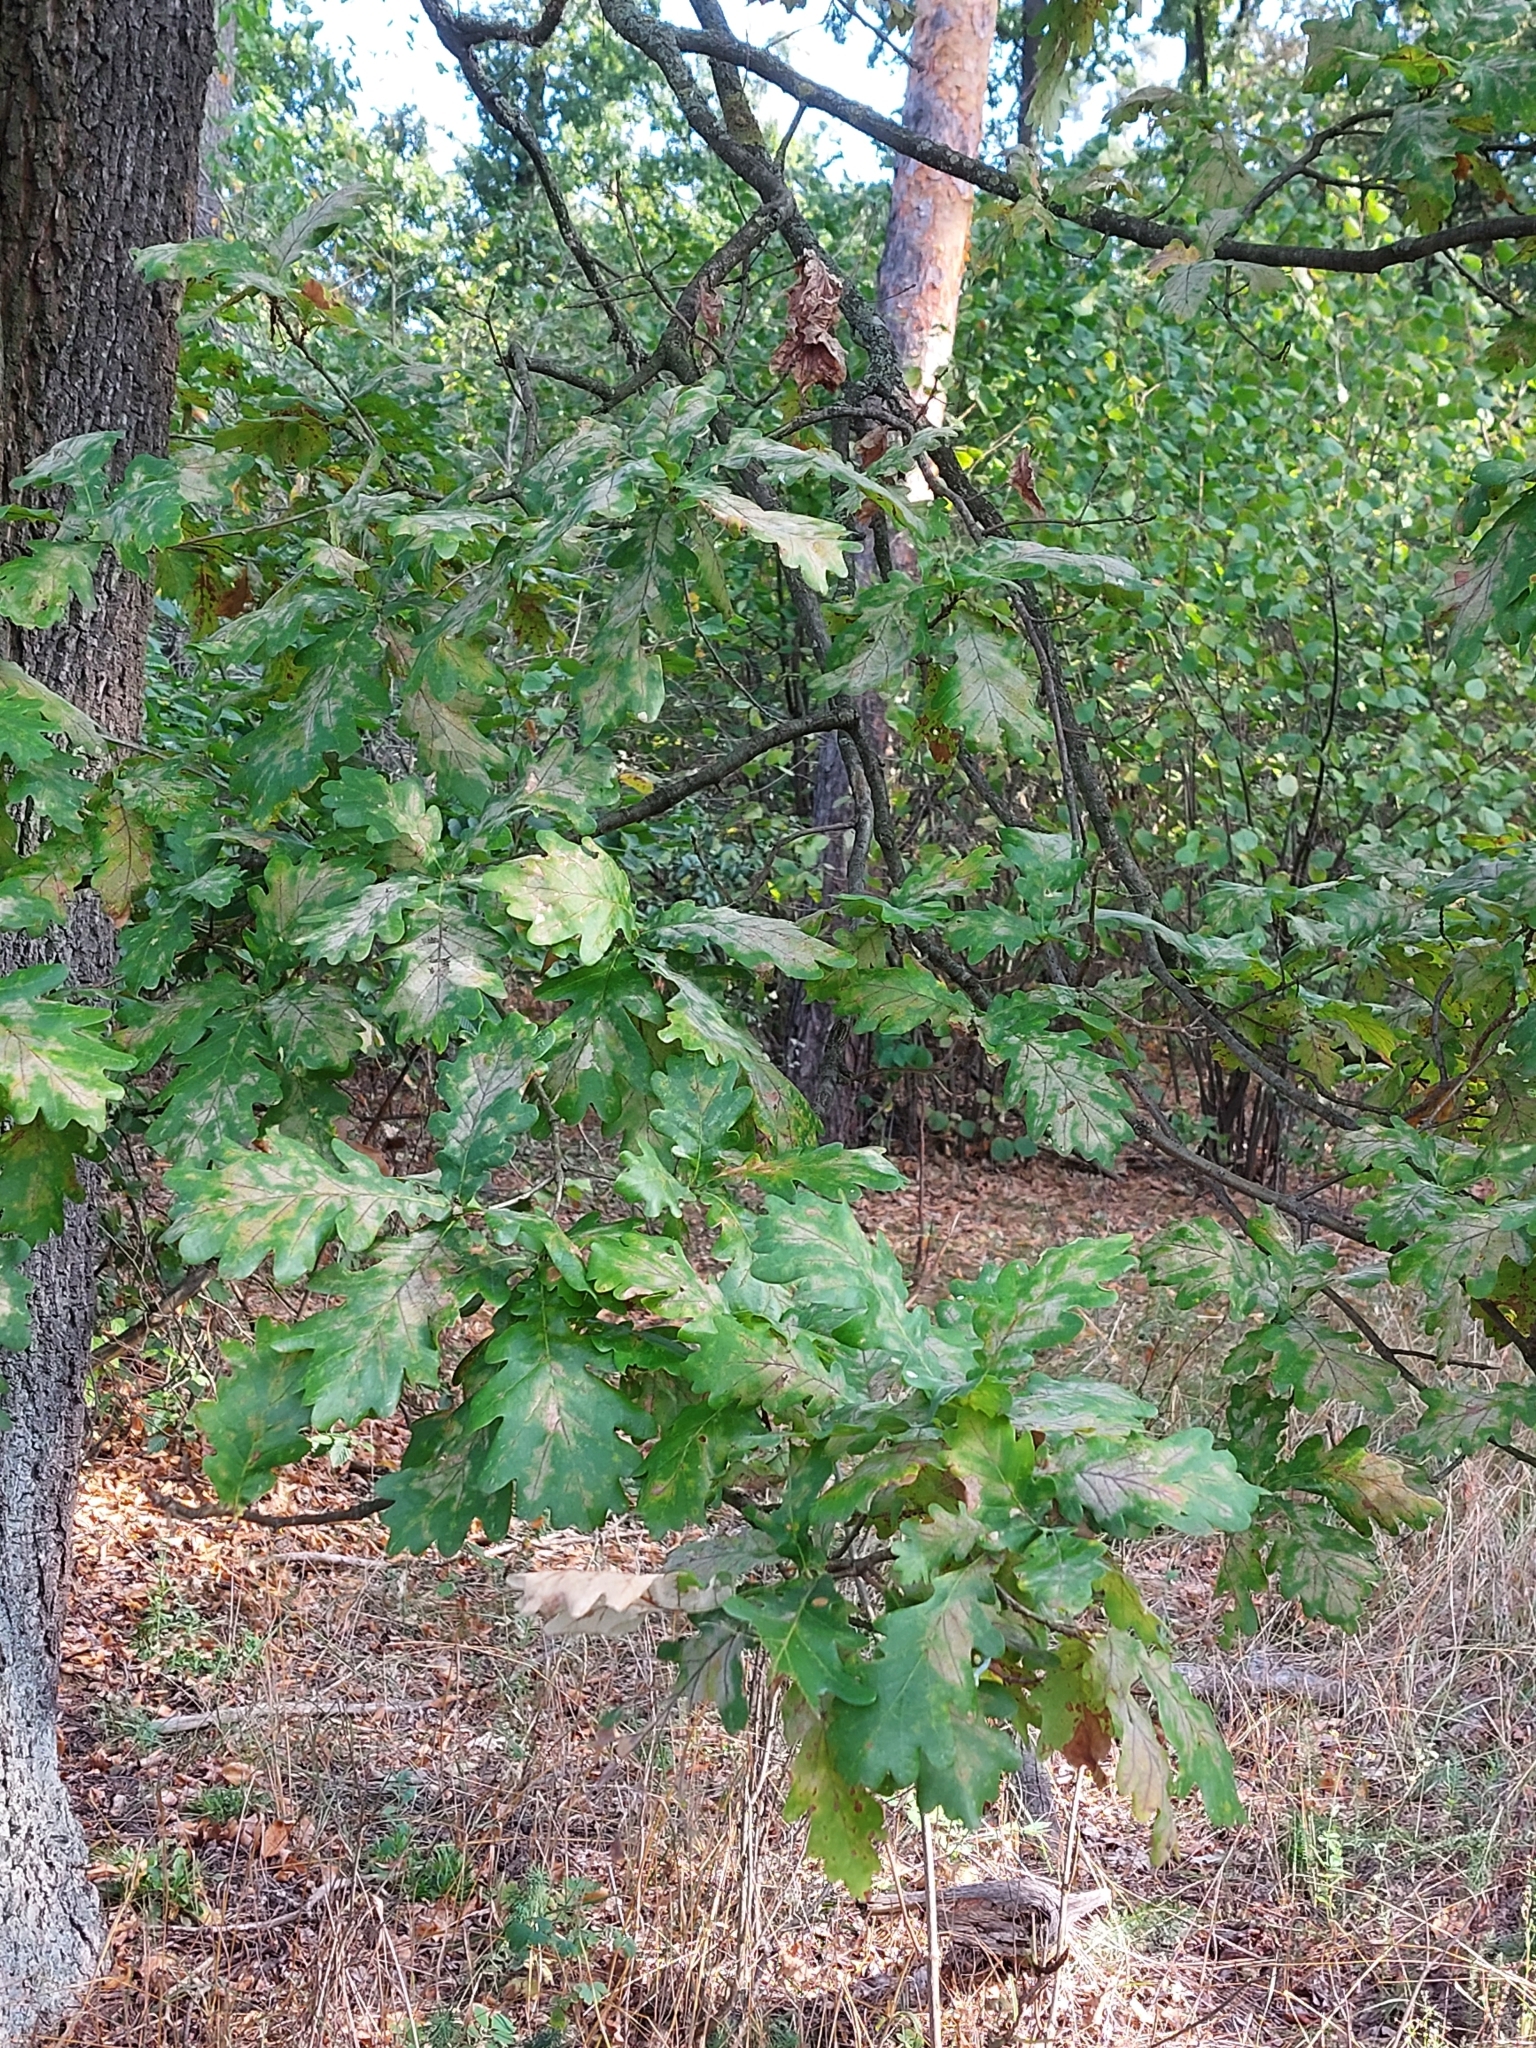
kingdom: Plantae
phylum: Tracheophyta
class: Magnoliopsida
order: Fagales
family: Fagaceae
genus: Quercus
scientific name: Quercus robur
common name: Pedunculate oak
